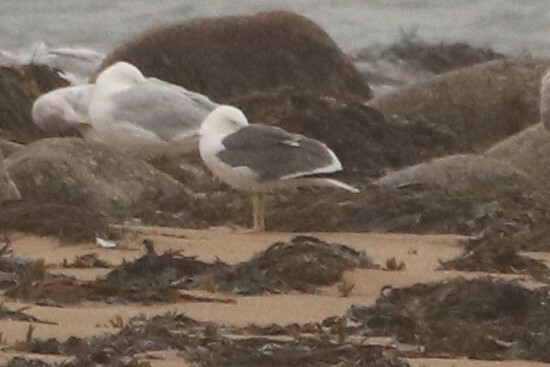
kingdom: Animalia
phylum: Chordata
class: Aves
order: Charadriiformes
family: Laridae
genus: Larus
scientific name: Larus fuscus
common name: Lesser black-backed gull
